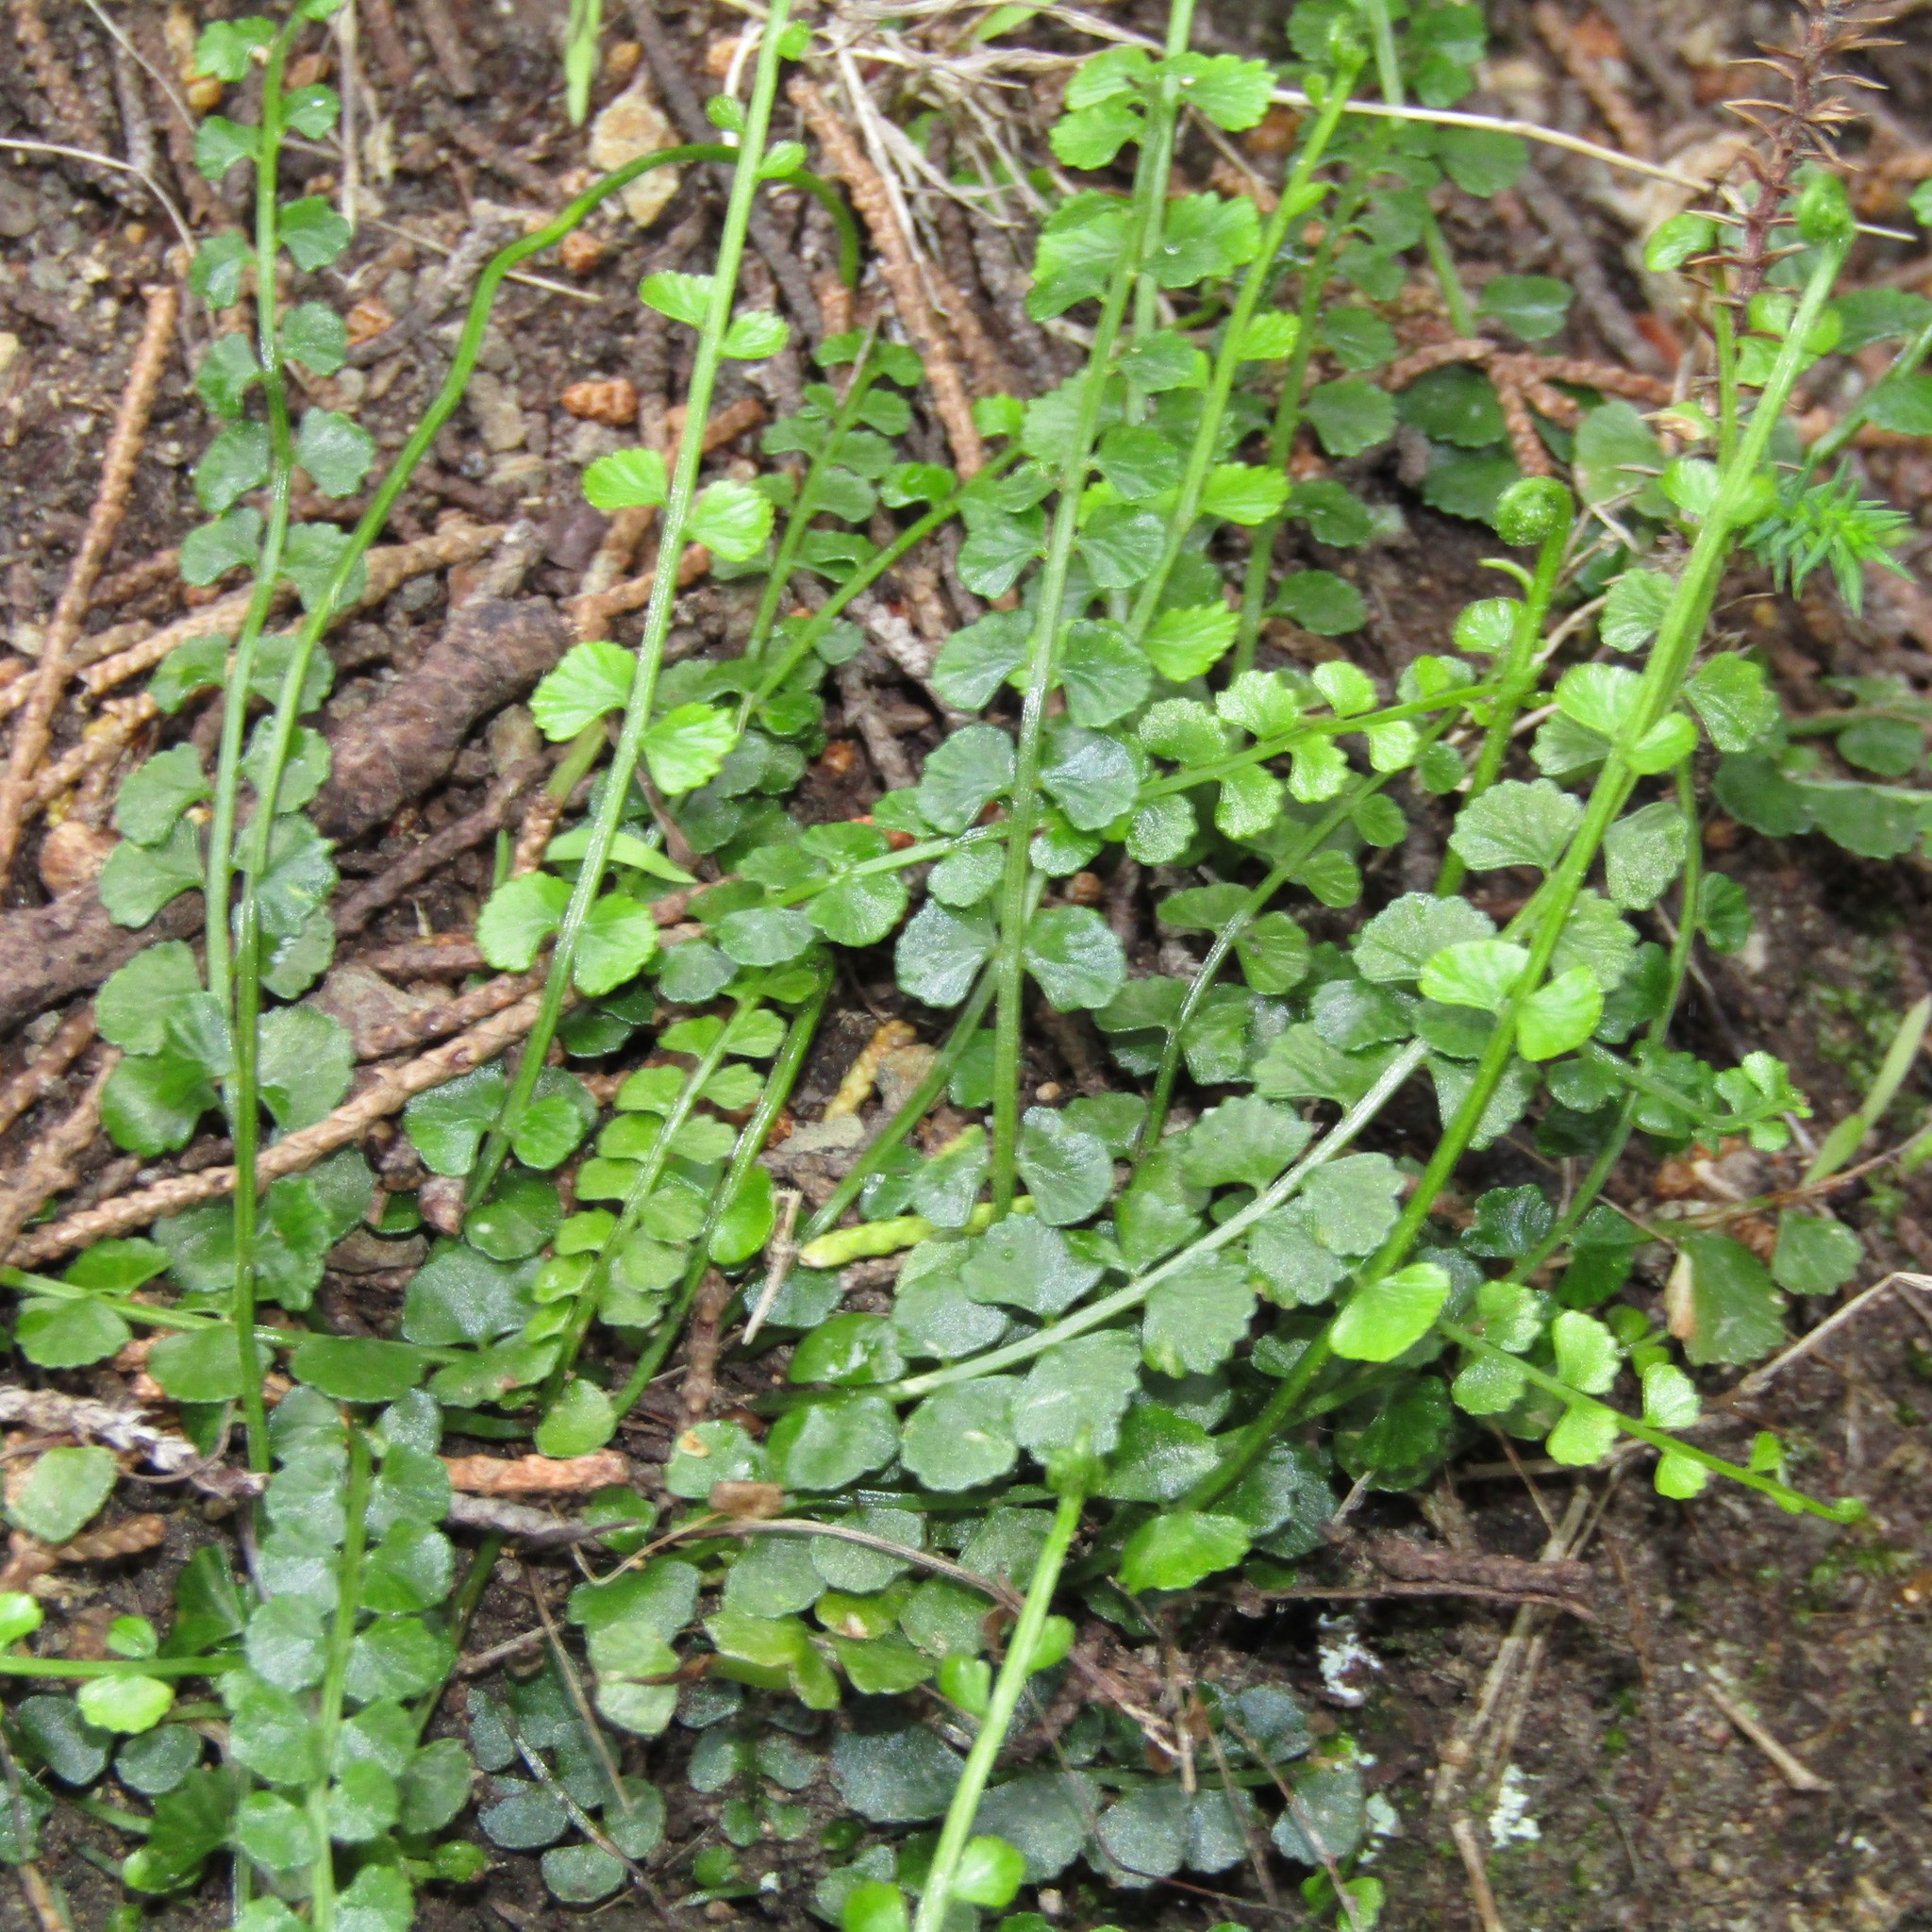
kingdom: Plantae
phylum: Tracheophyta
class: Polypodiopsida
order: Polypodiales
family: Aspleniaceae
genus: Asplenium
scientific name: Asplenium flabellifolium
